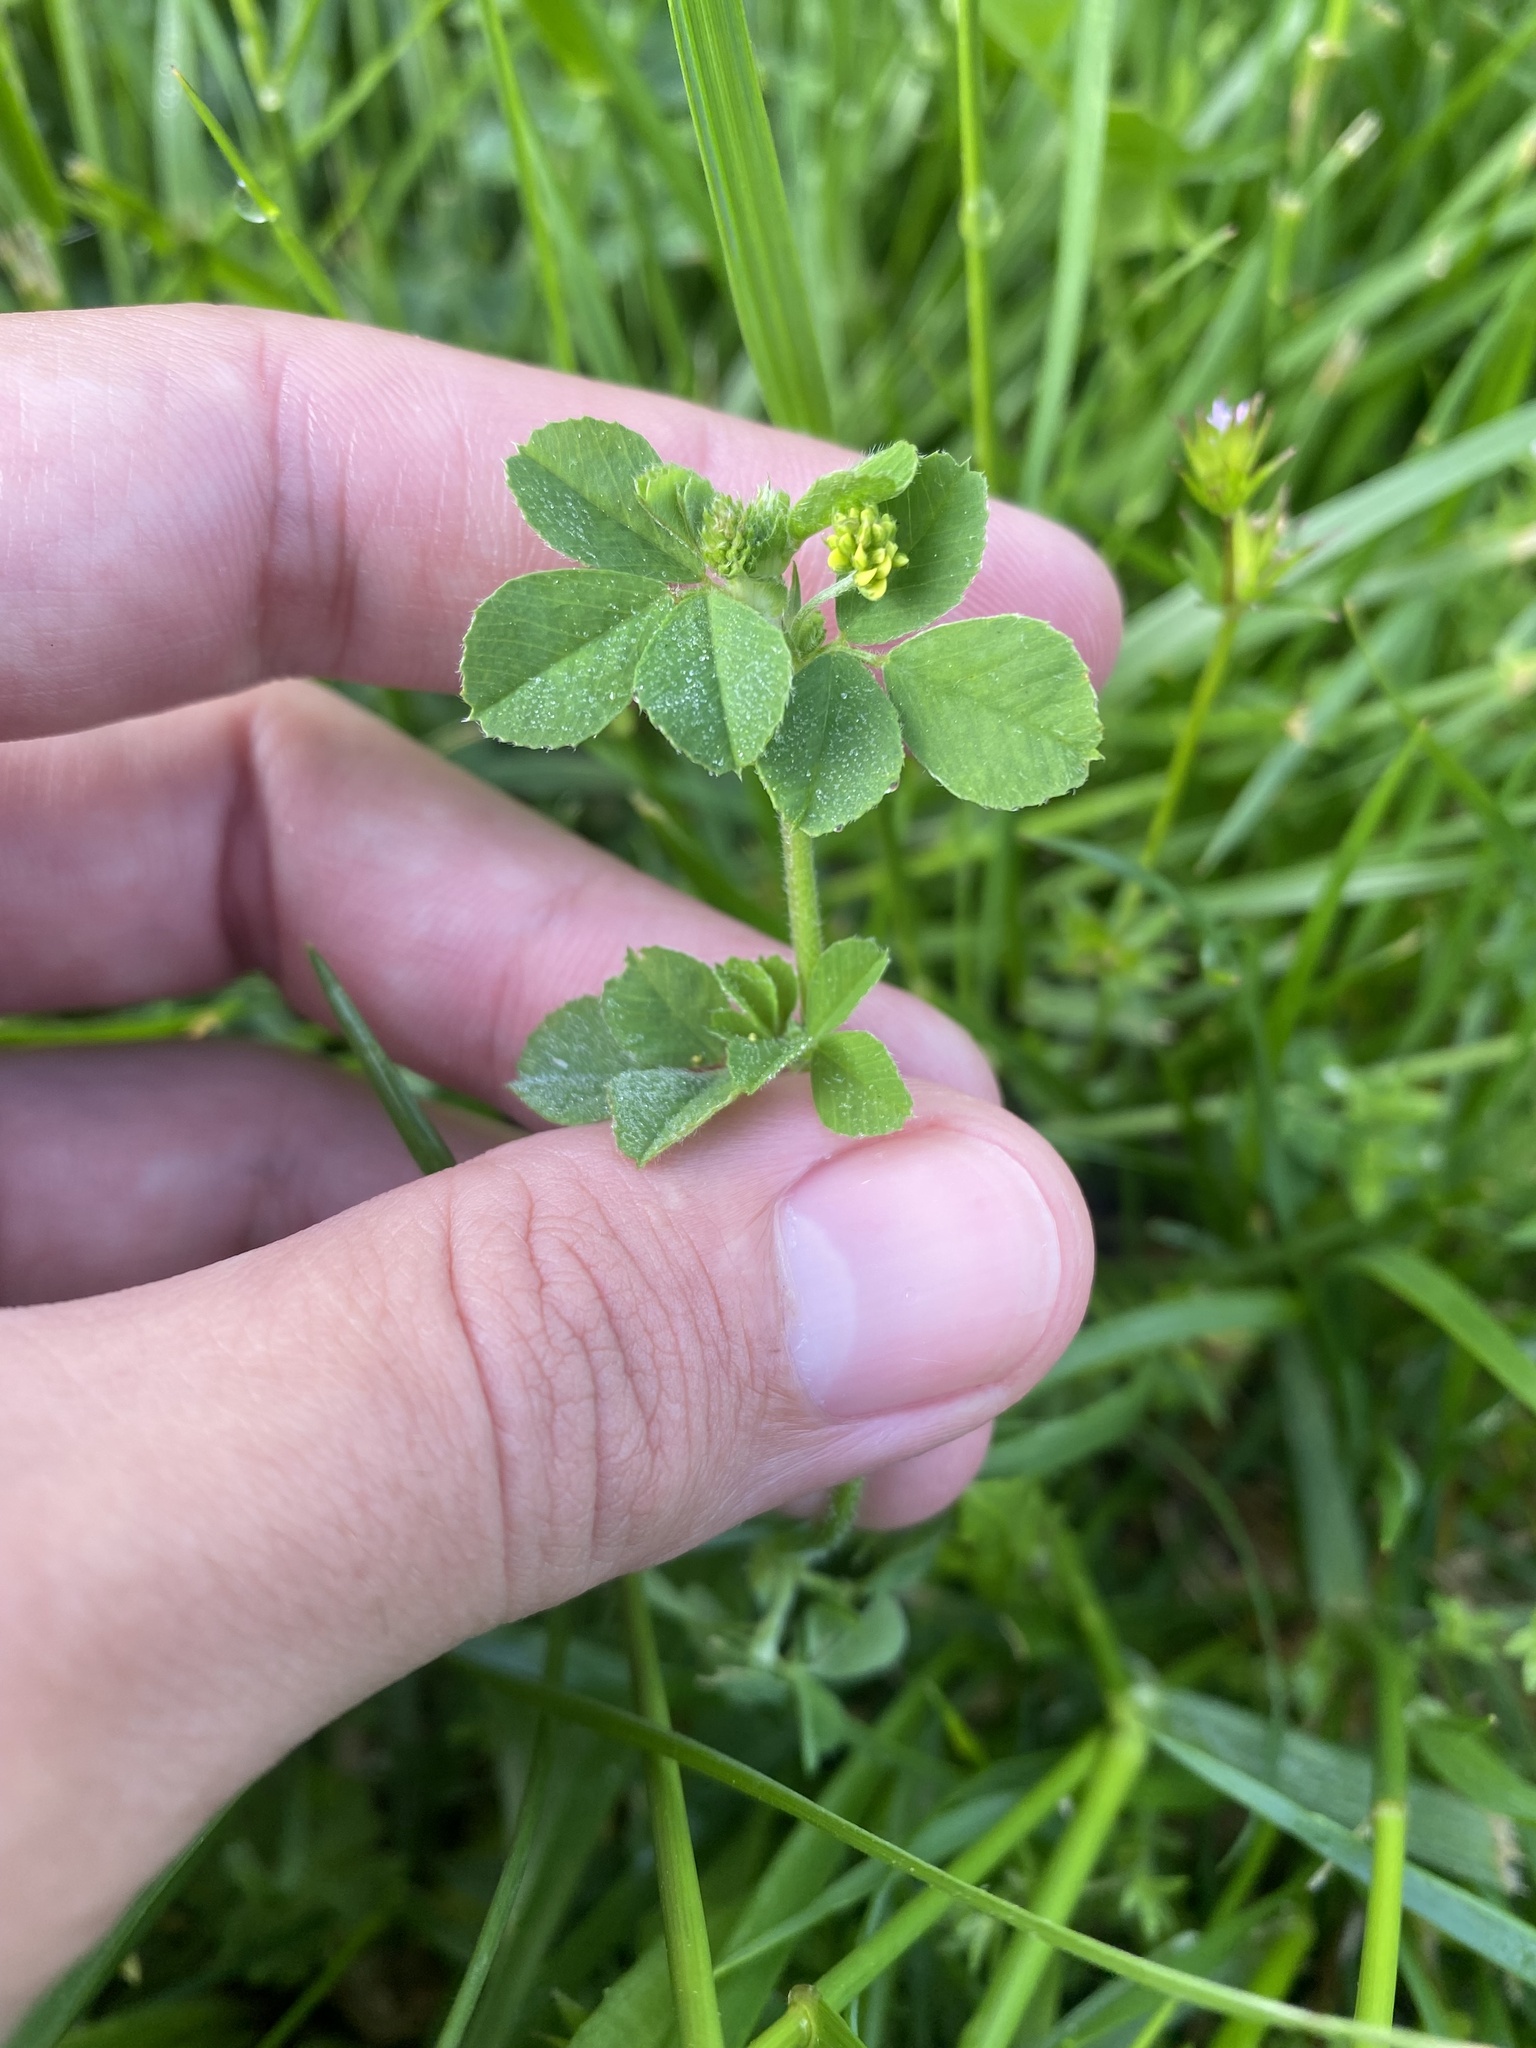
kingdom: Plantae
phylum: Tracheophyta
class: Magnoliopsida
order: Fabales
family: Fabaceae
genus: Medicago
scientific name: Medicago lupulina
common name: Black medick
